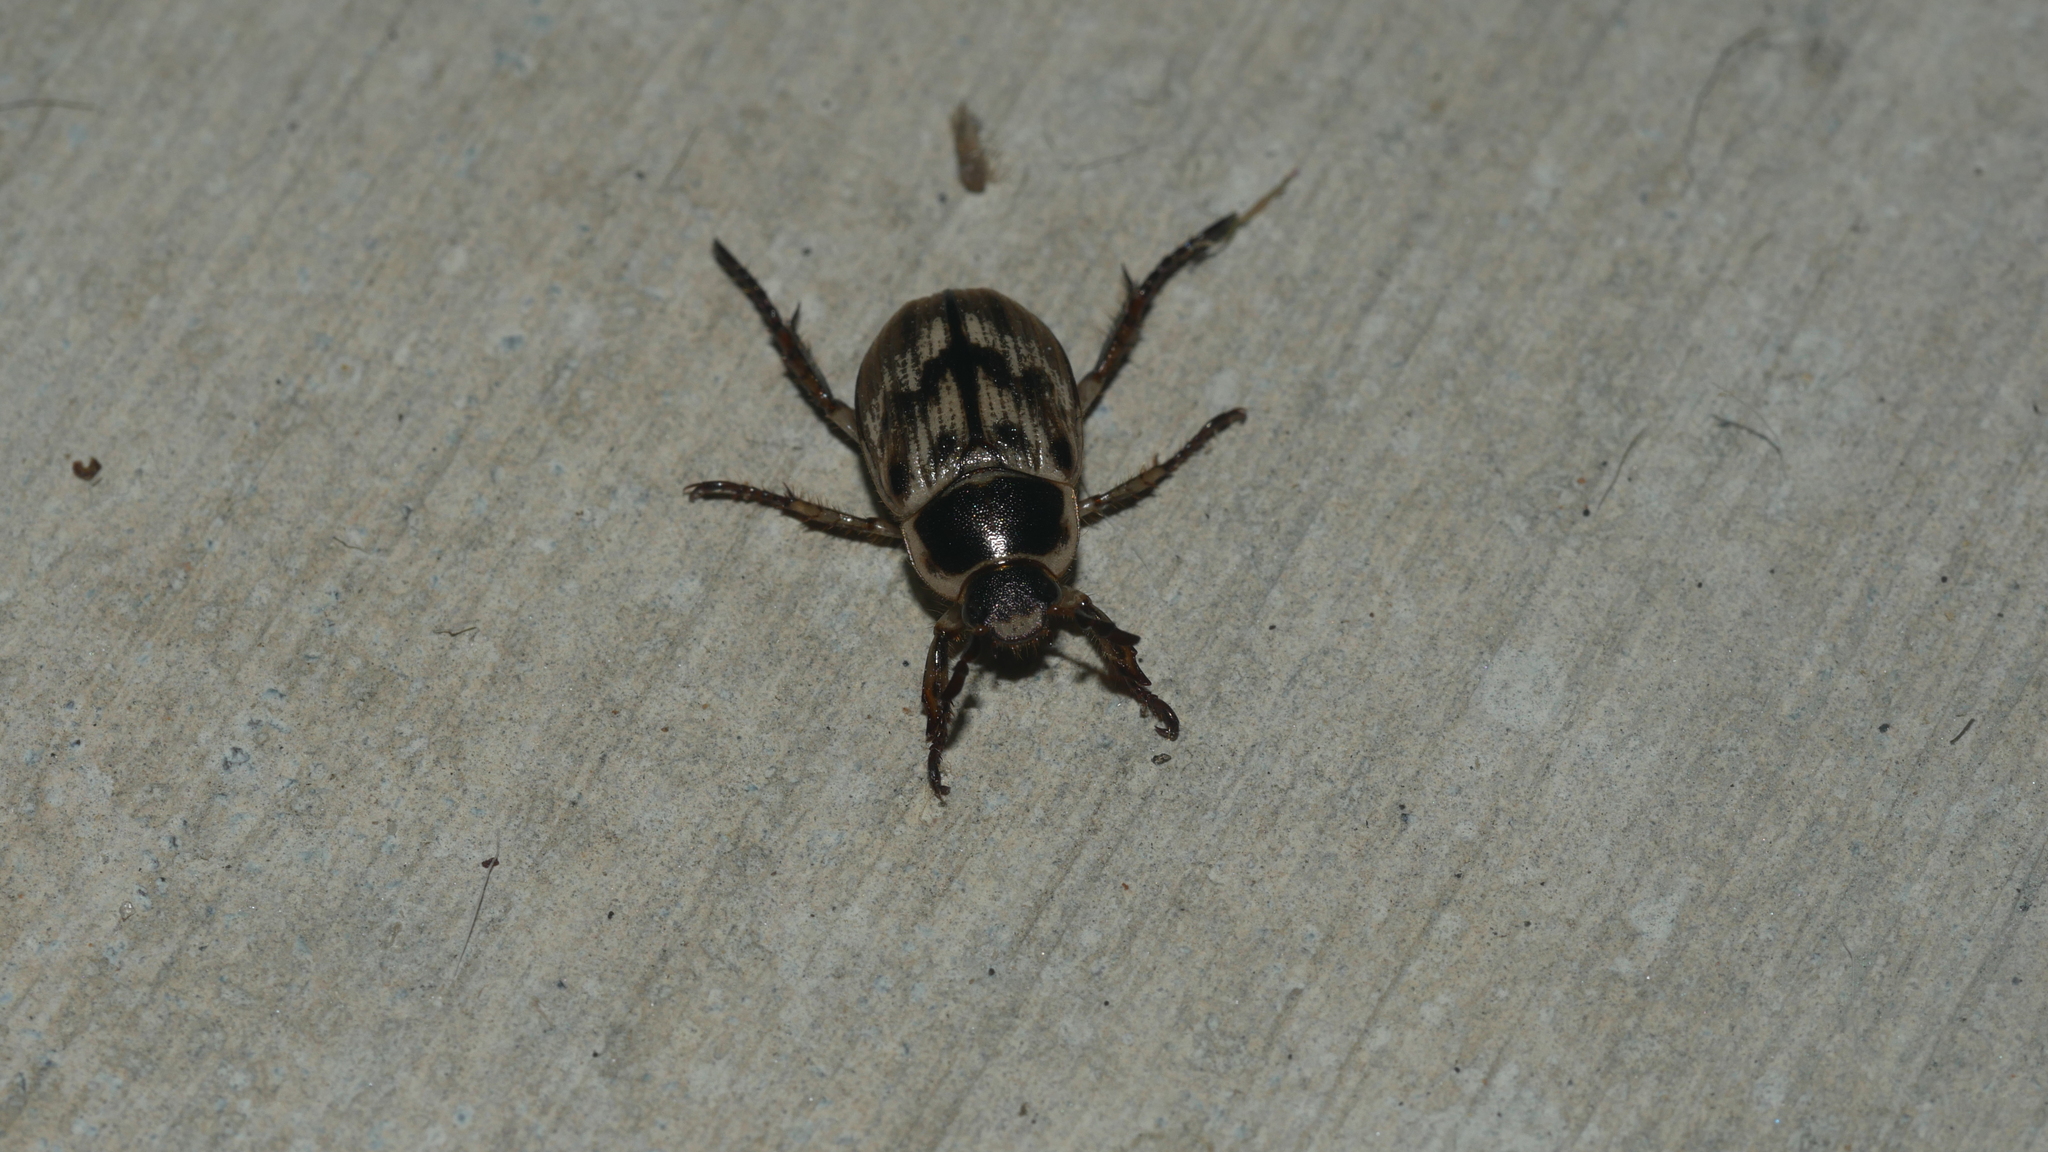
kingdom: Animalia
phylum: Arthropoda
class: Insecta
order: Coleoptera
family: Scarabaeidae
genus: Exomala
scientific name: Exomala orientalis
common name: Oriental beetle
